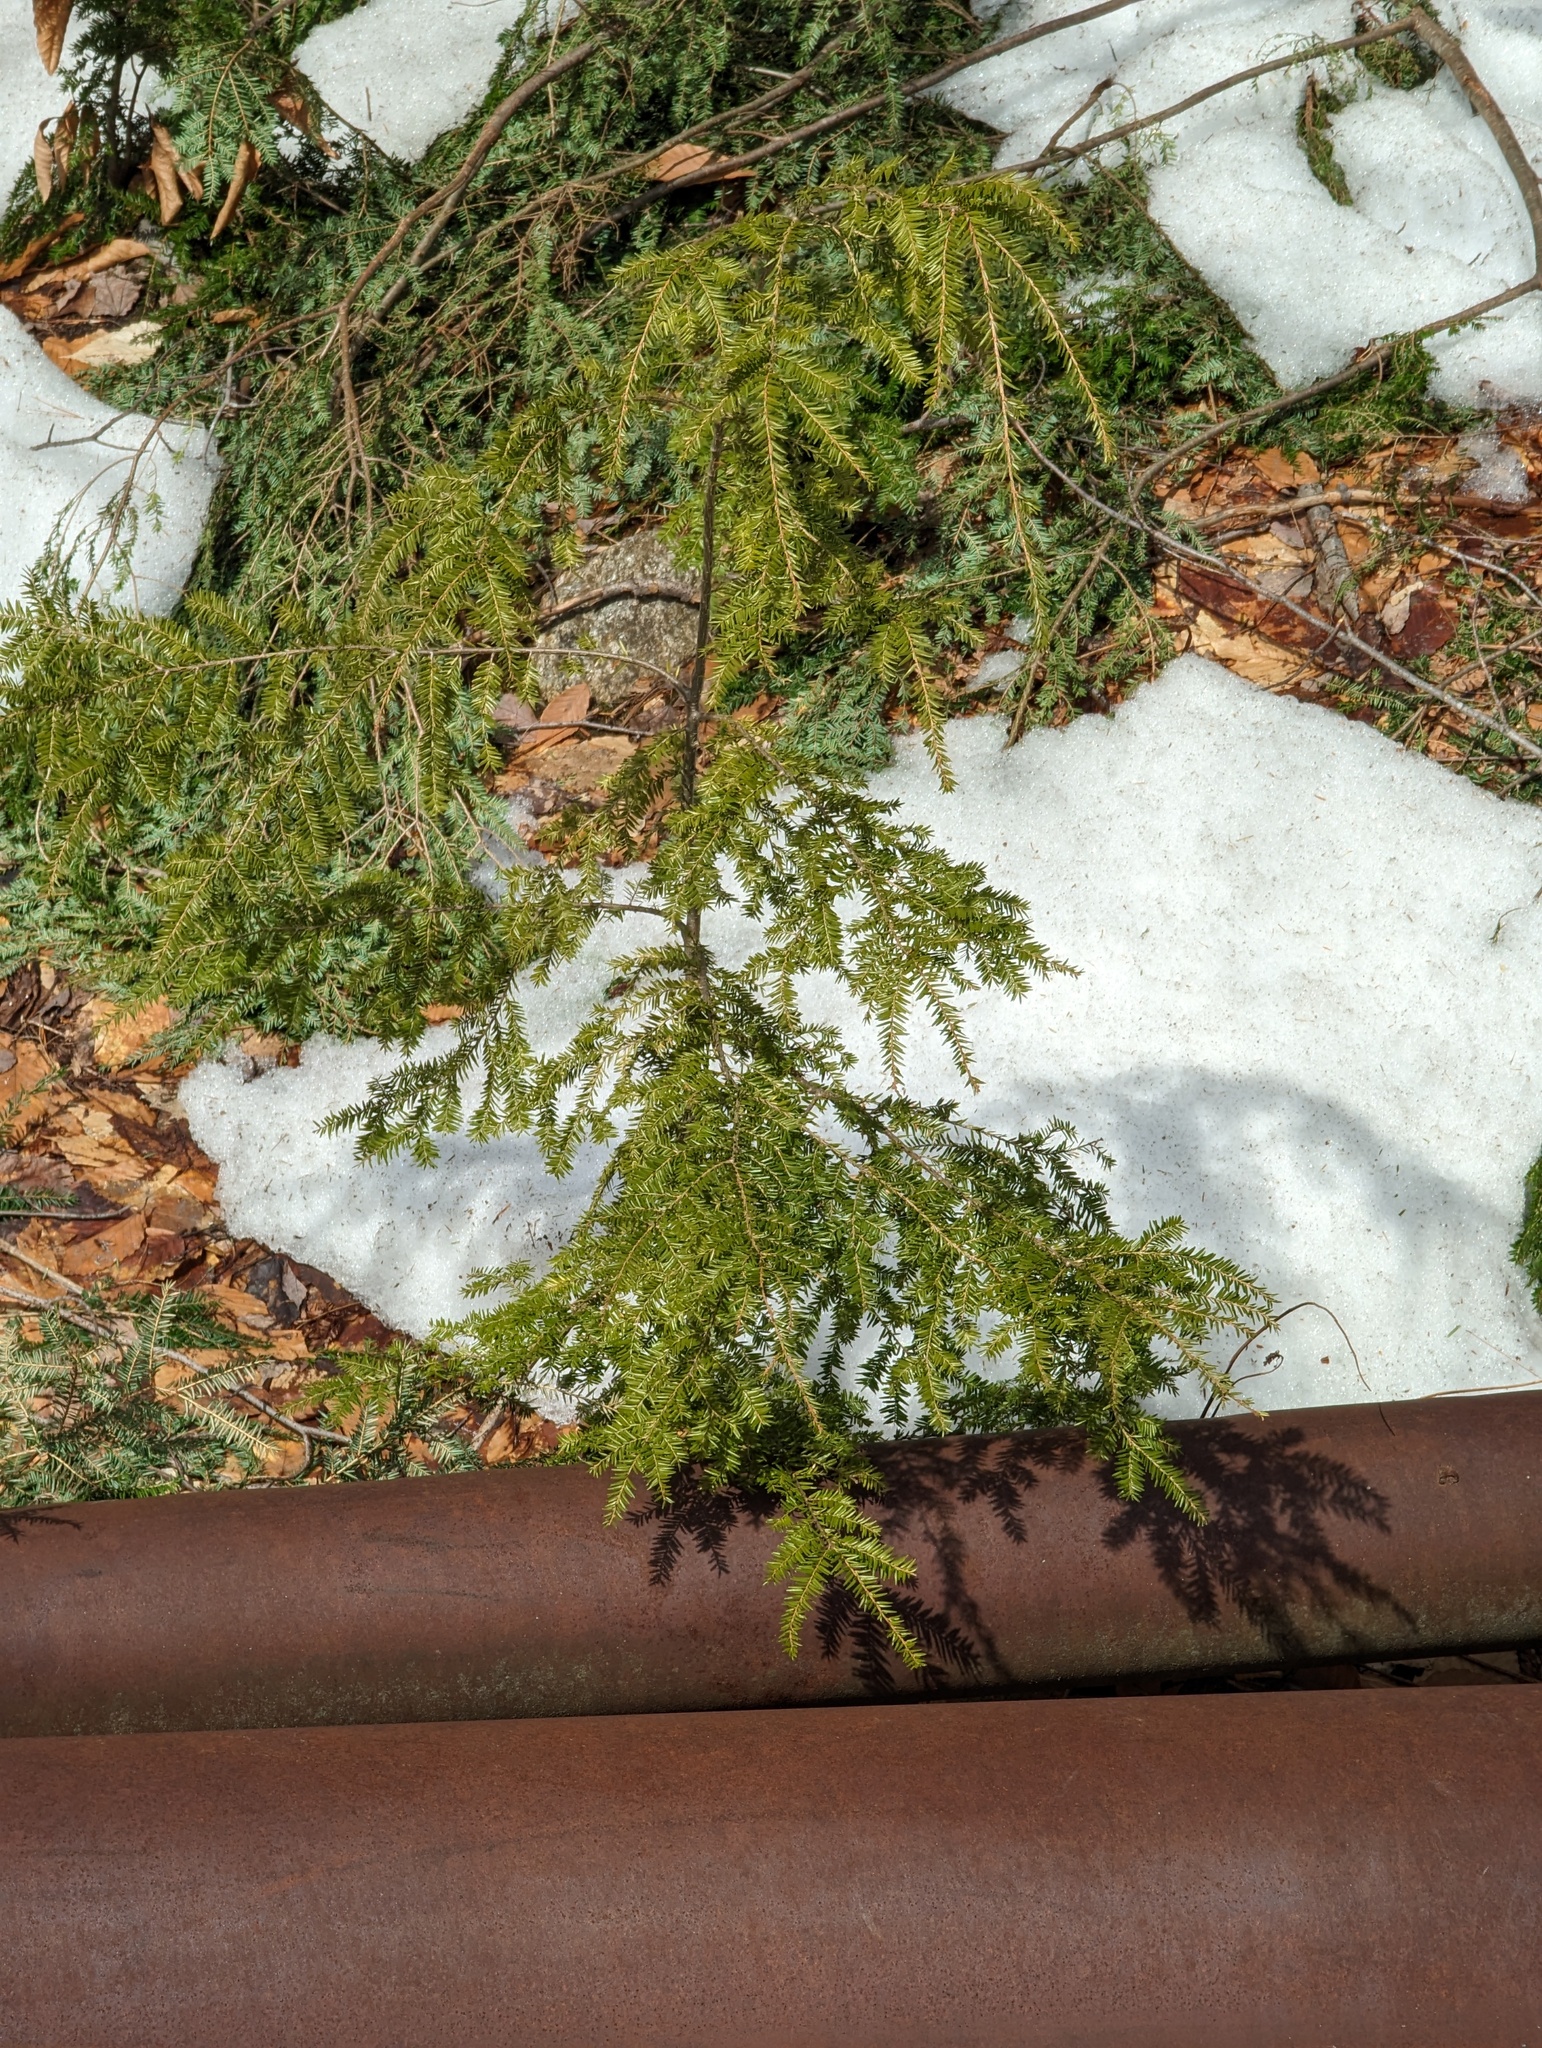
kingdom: Plantae
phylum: Tracheophyta
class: Pinopsida
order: Pinales
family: Pinaceae
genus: Tsuga
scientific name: Tsuga canadensis
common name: Eastern hemlock
